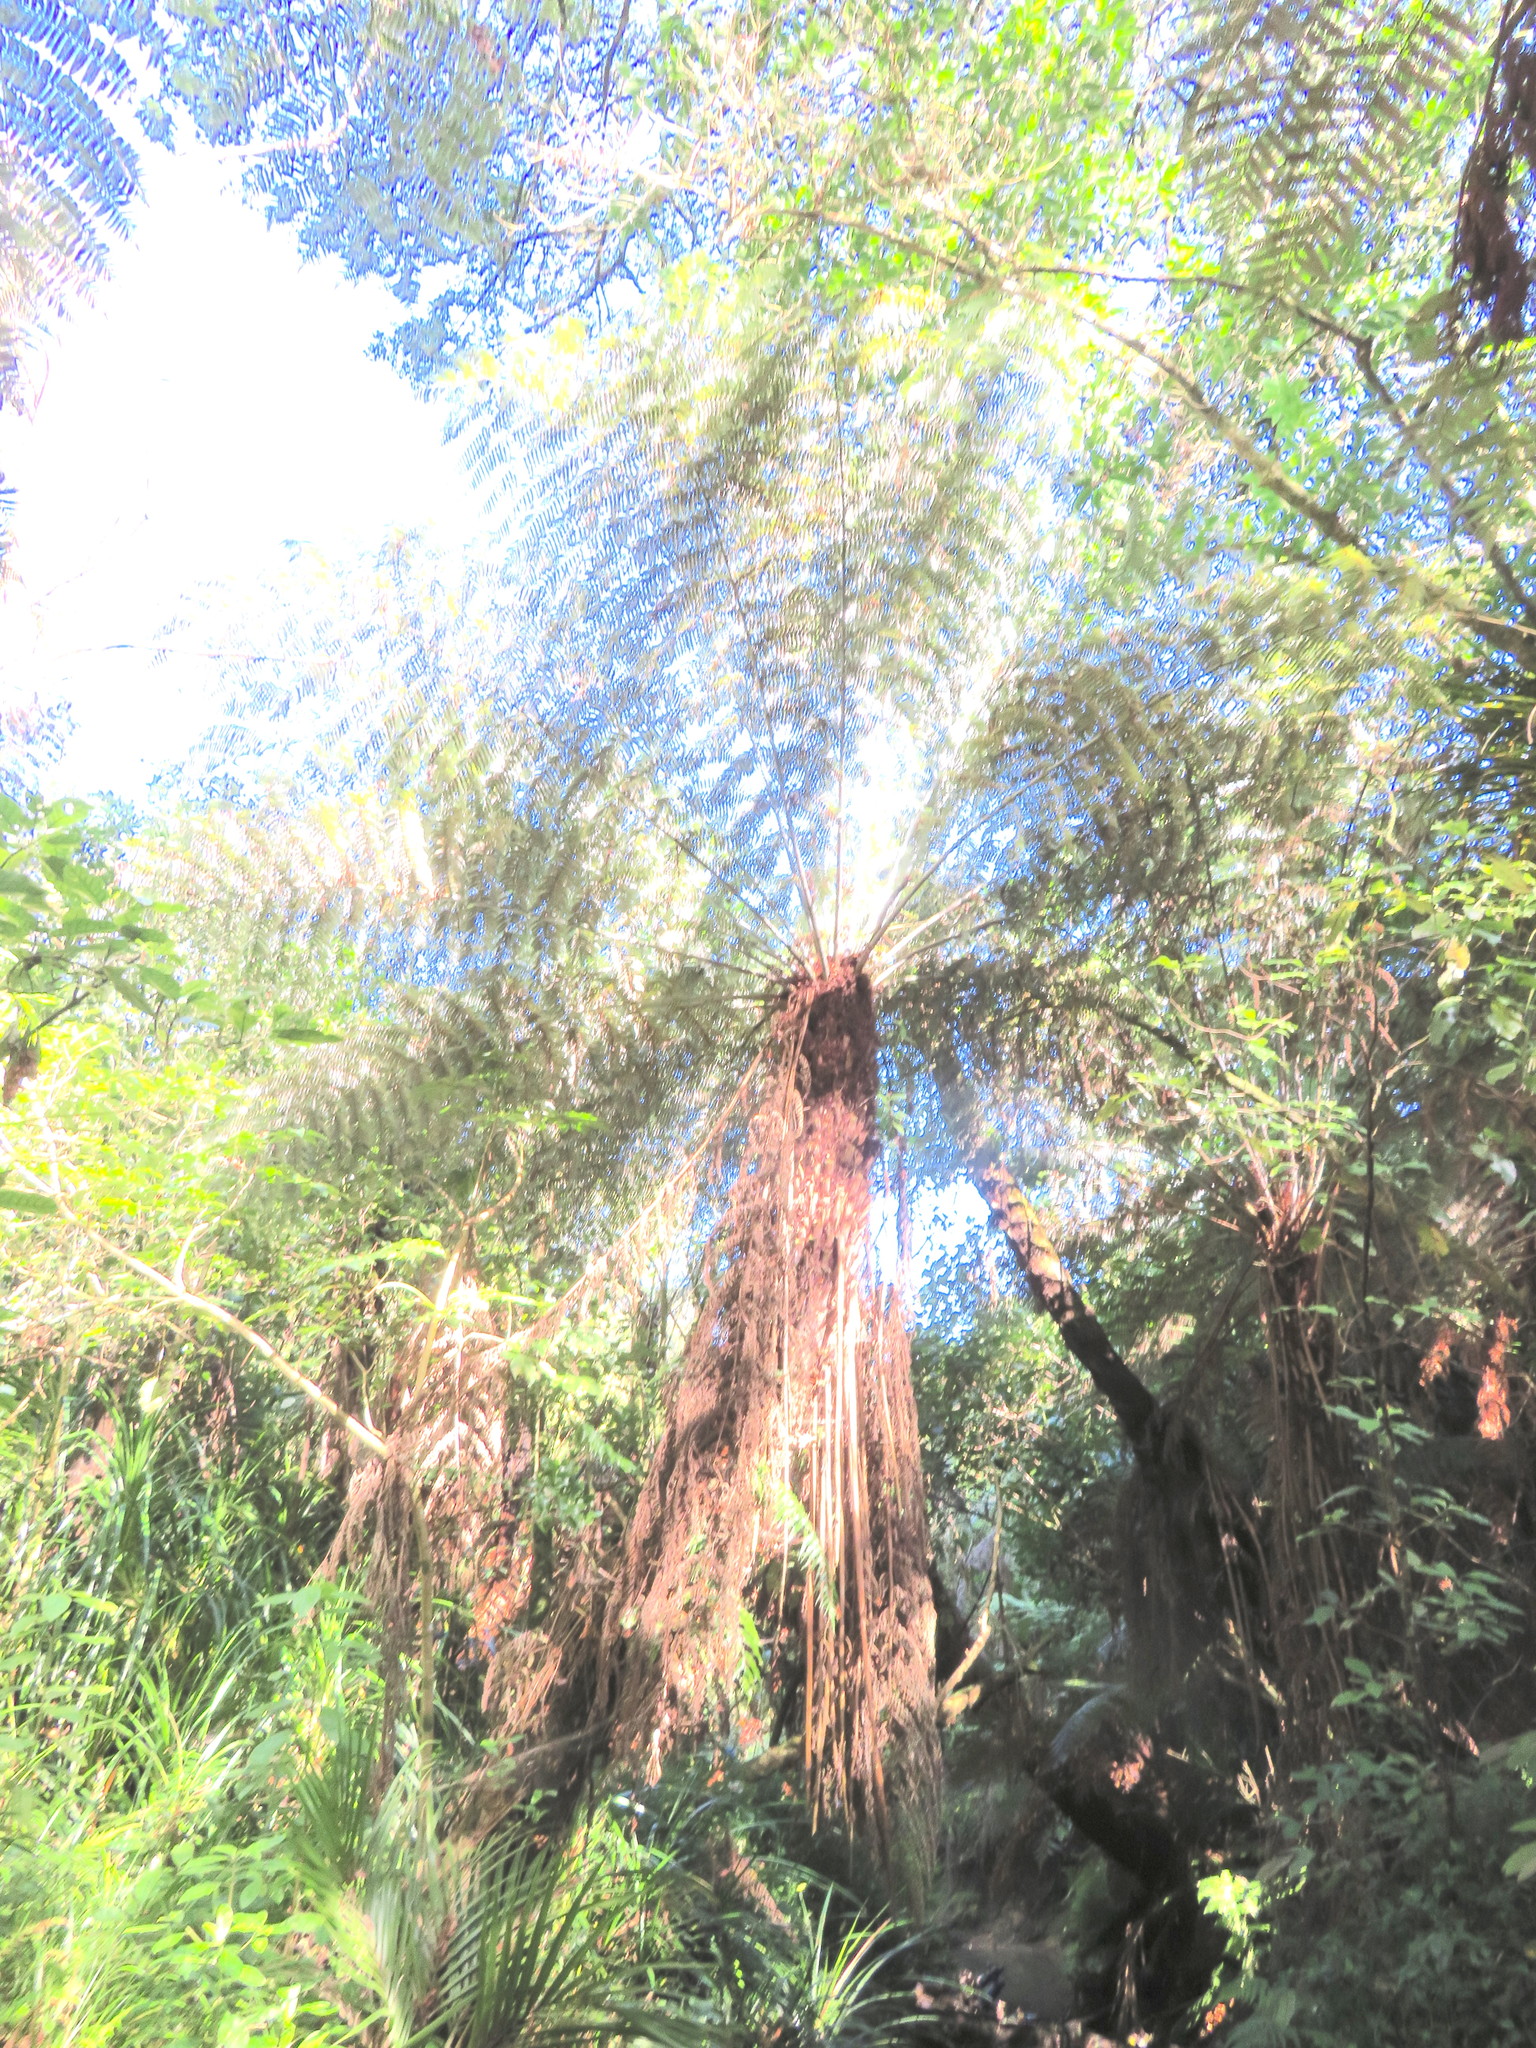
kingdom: Plantae
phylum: Tracheophyta
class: Polypodiopsida
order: Cyatheales
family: Cyatheaceae
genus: Alsophila
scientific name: Alsophila dealbata
